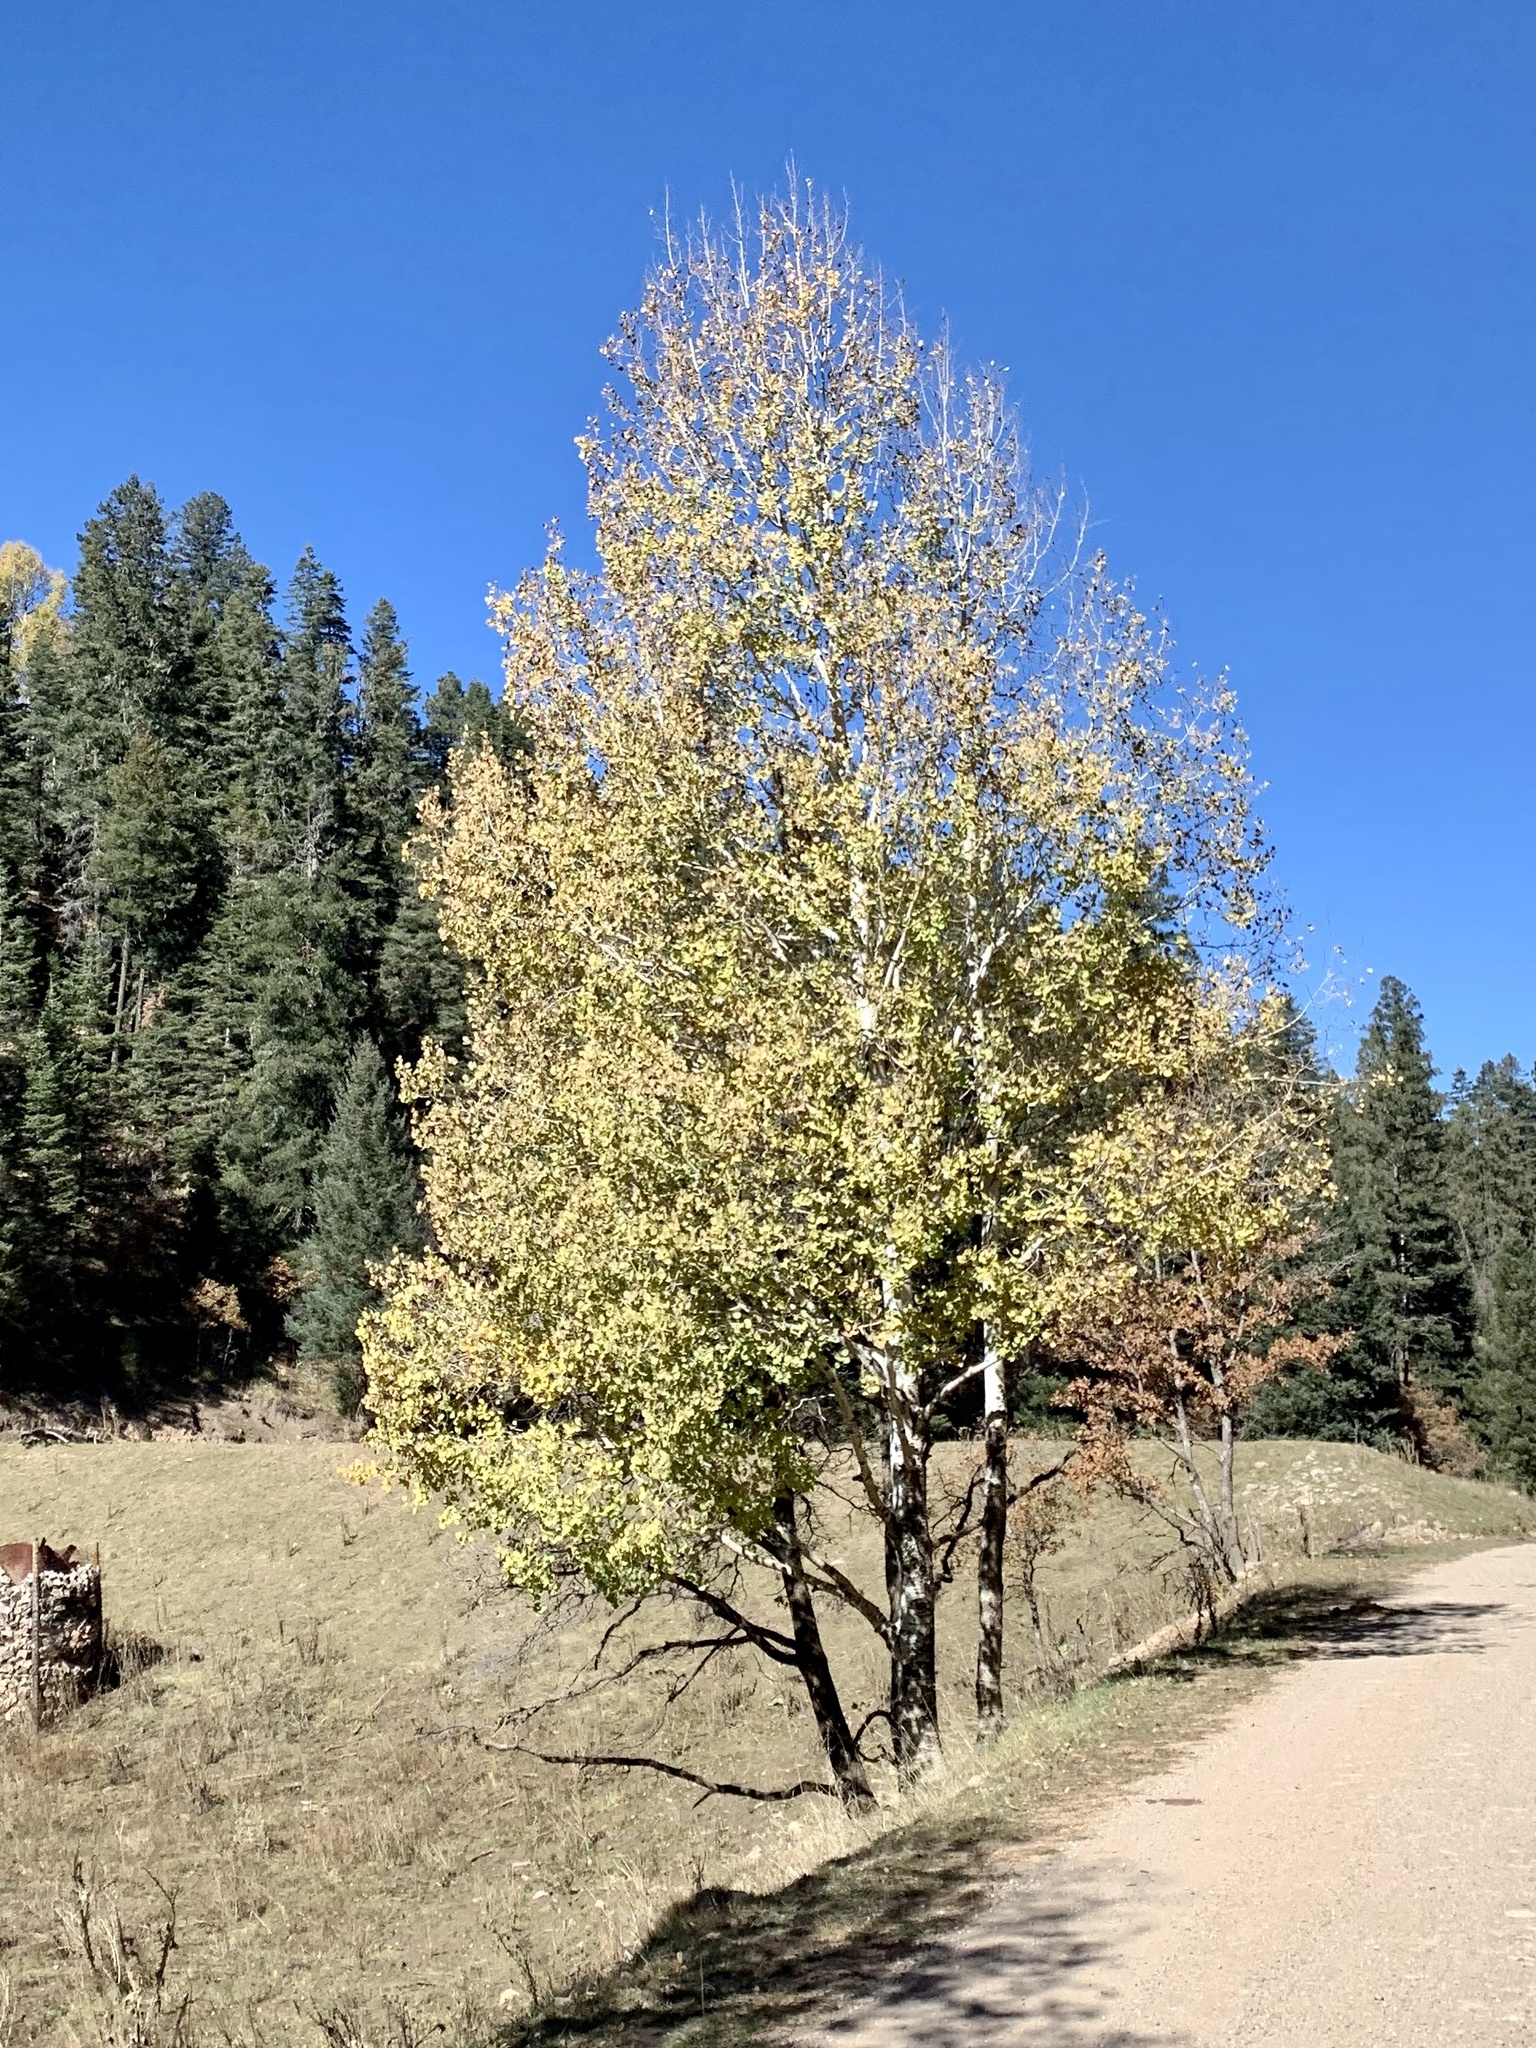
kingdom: Plantae
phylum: Tracheophyta
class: Magnoliopsida
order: Malpighiales
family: Salicaceae
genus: Populus
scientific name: Populus tremuloides
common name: Quaking aspen
